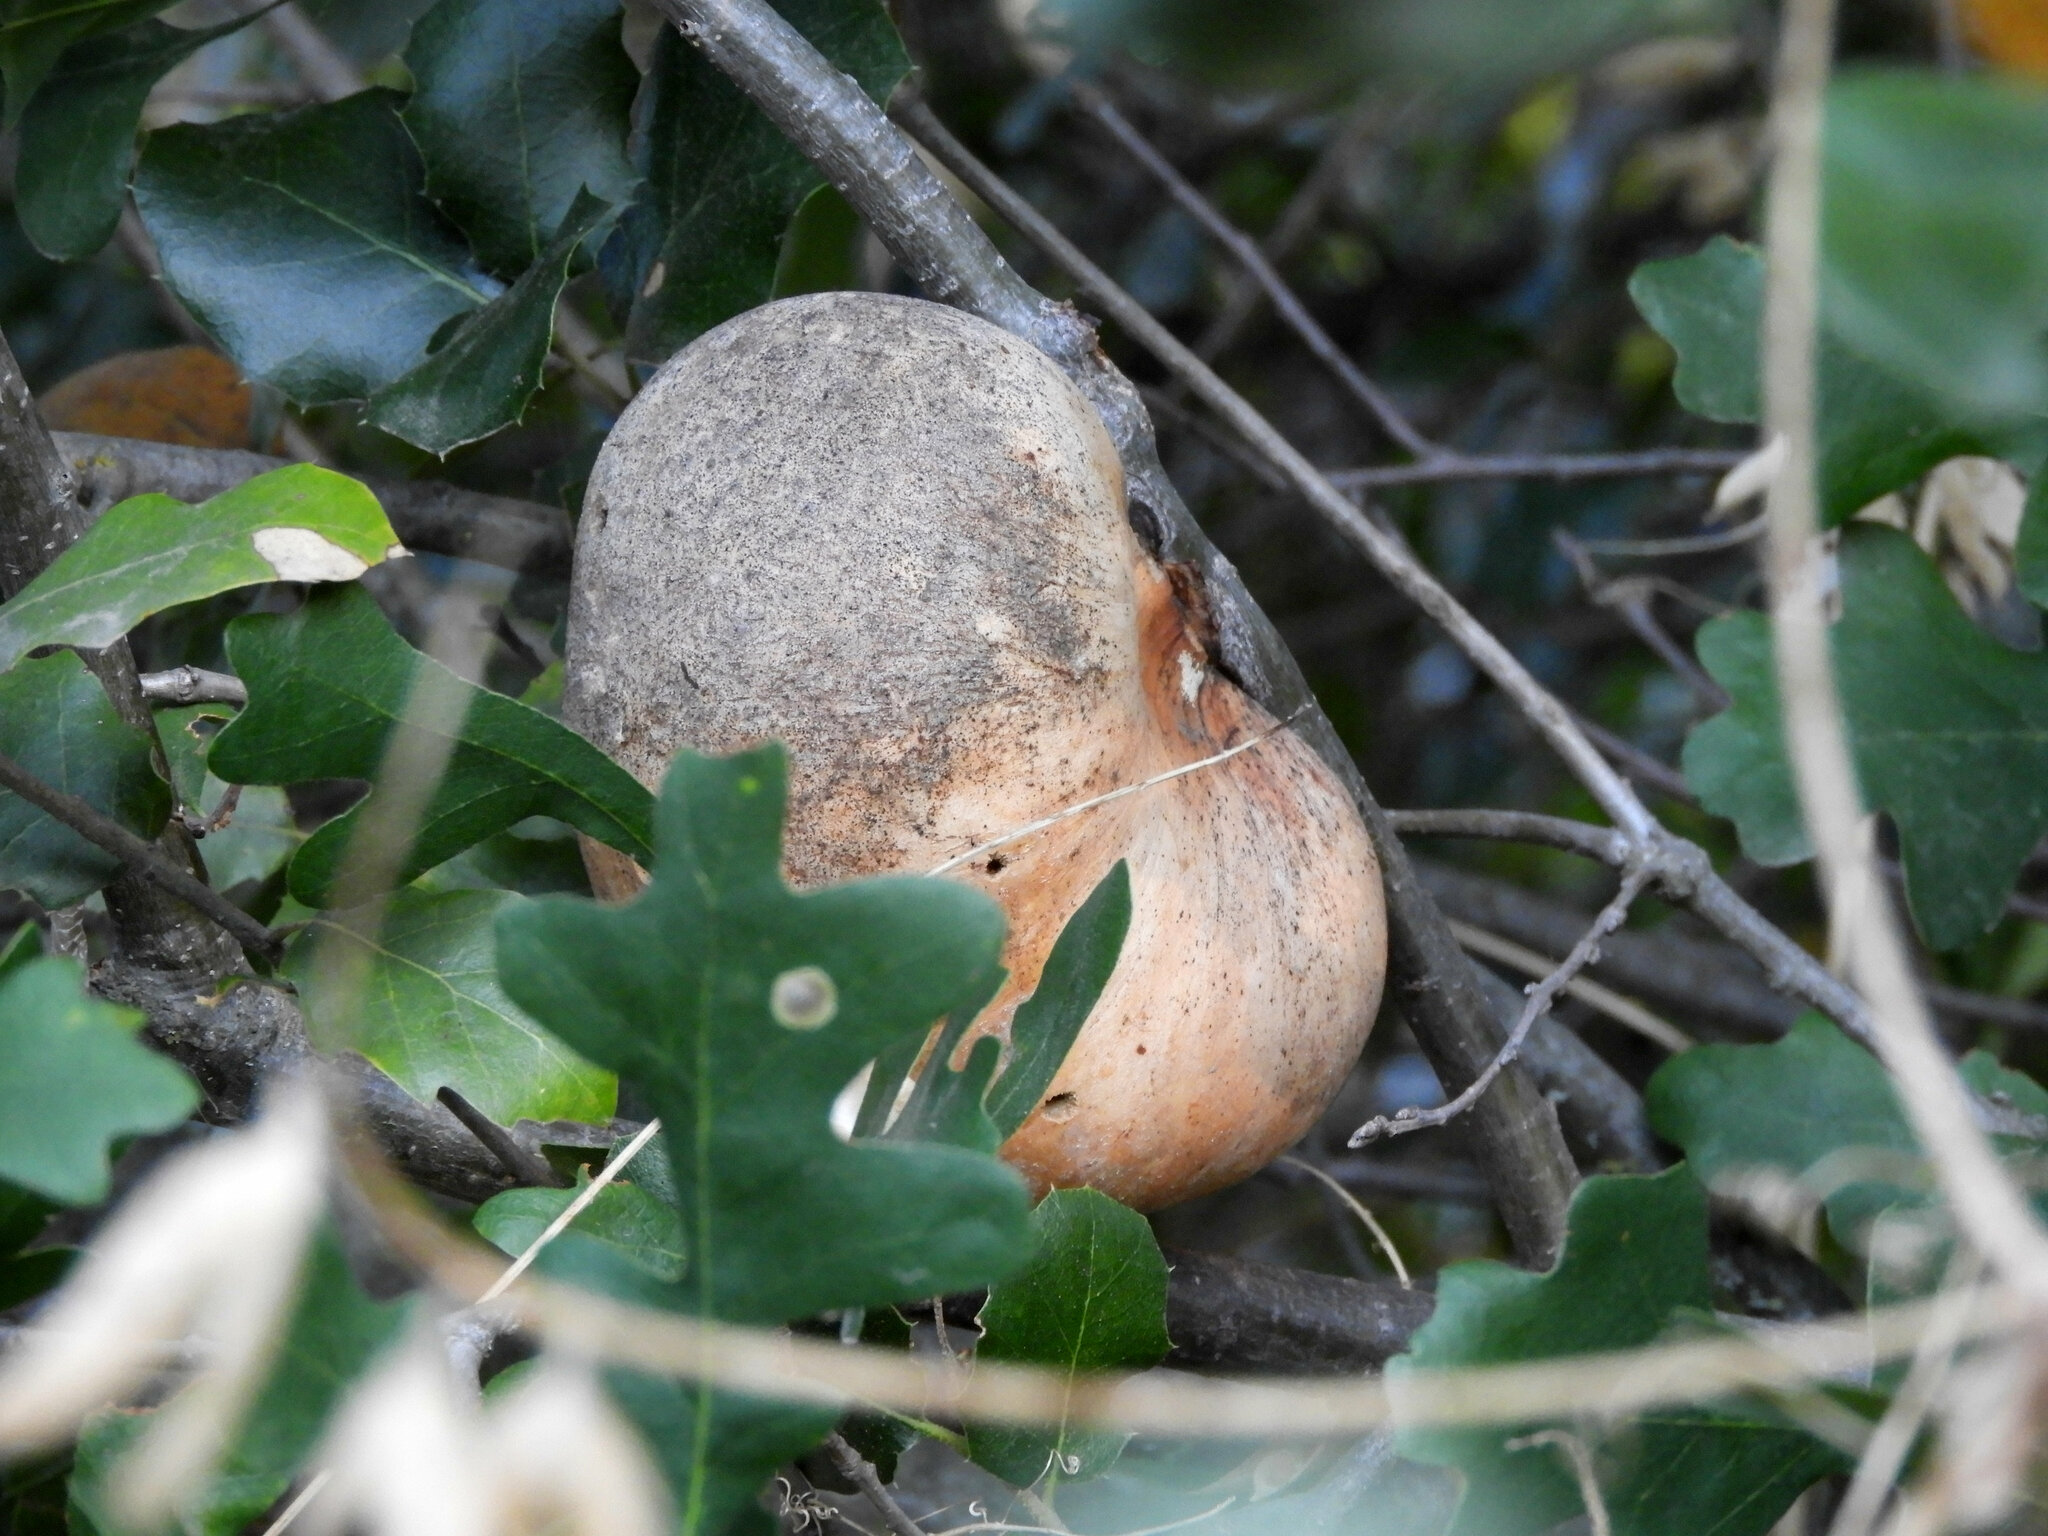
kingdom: Animalia
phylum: Arthropoda
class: Insecta
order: Hymenoptera
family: Cynipidae
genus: Andricus
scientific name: Andricus quercuscalifornicus
